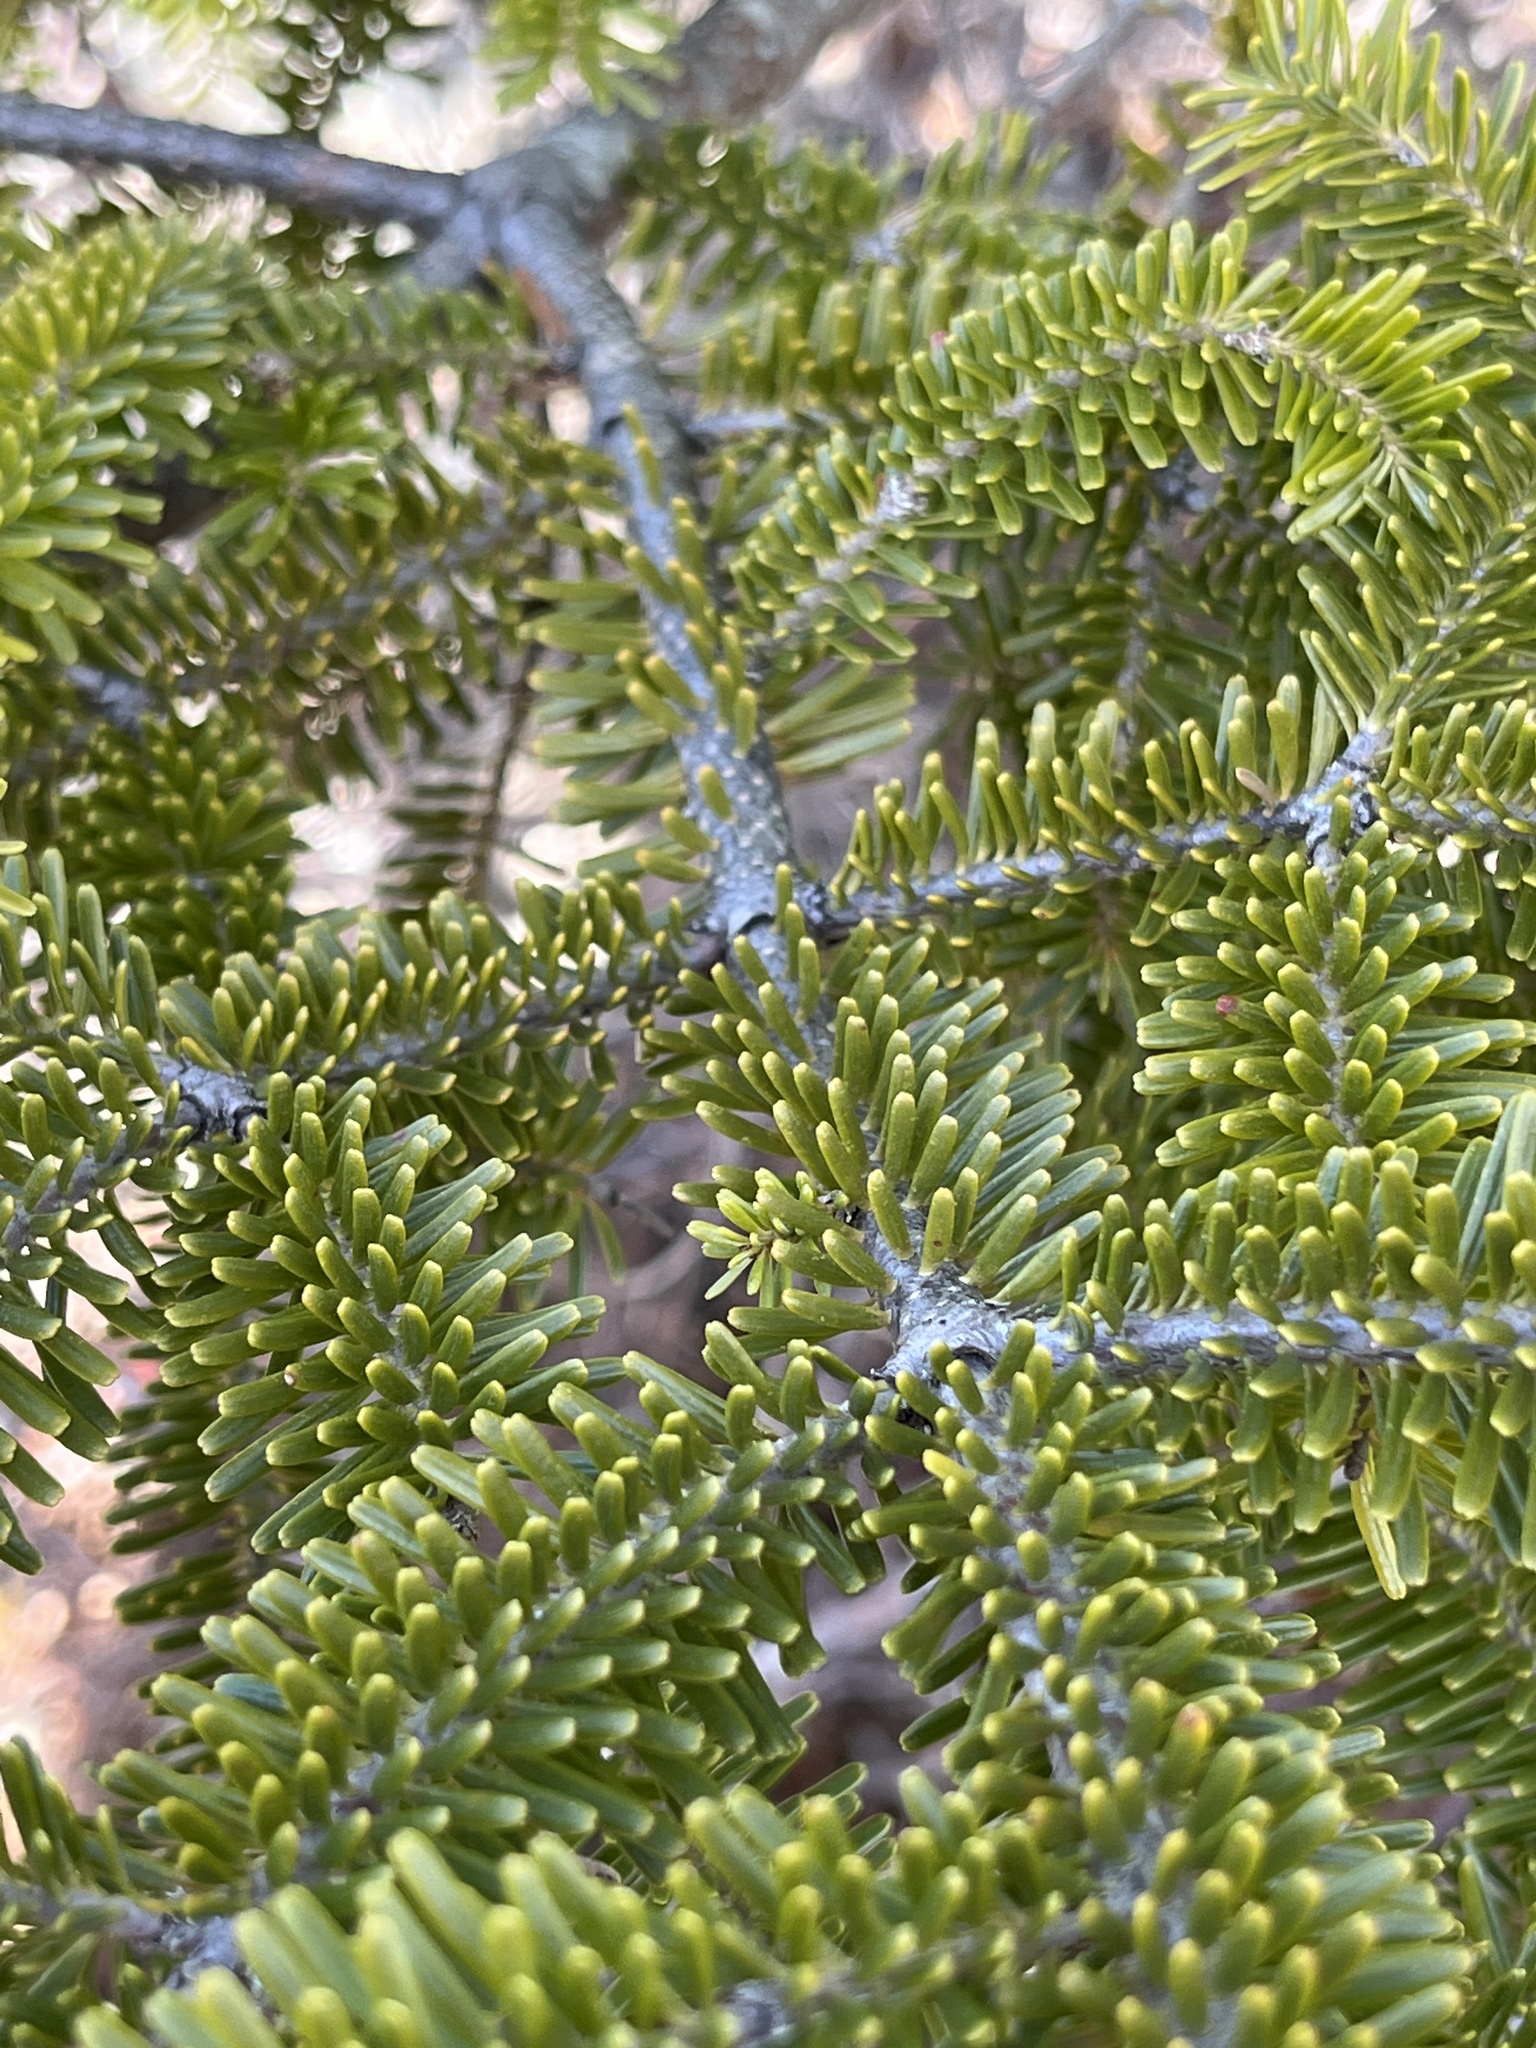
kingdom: Plantae
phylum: Tracheophyta
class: Pinopsida
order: Pinales
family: Pinaceae
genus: Abies
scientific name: Abies balsamea
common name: Balsam fir
